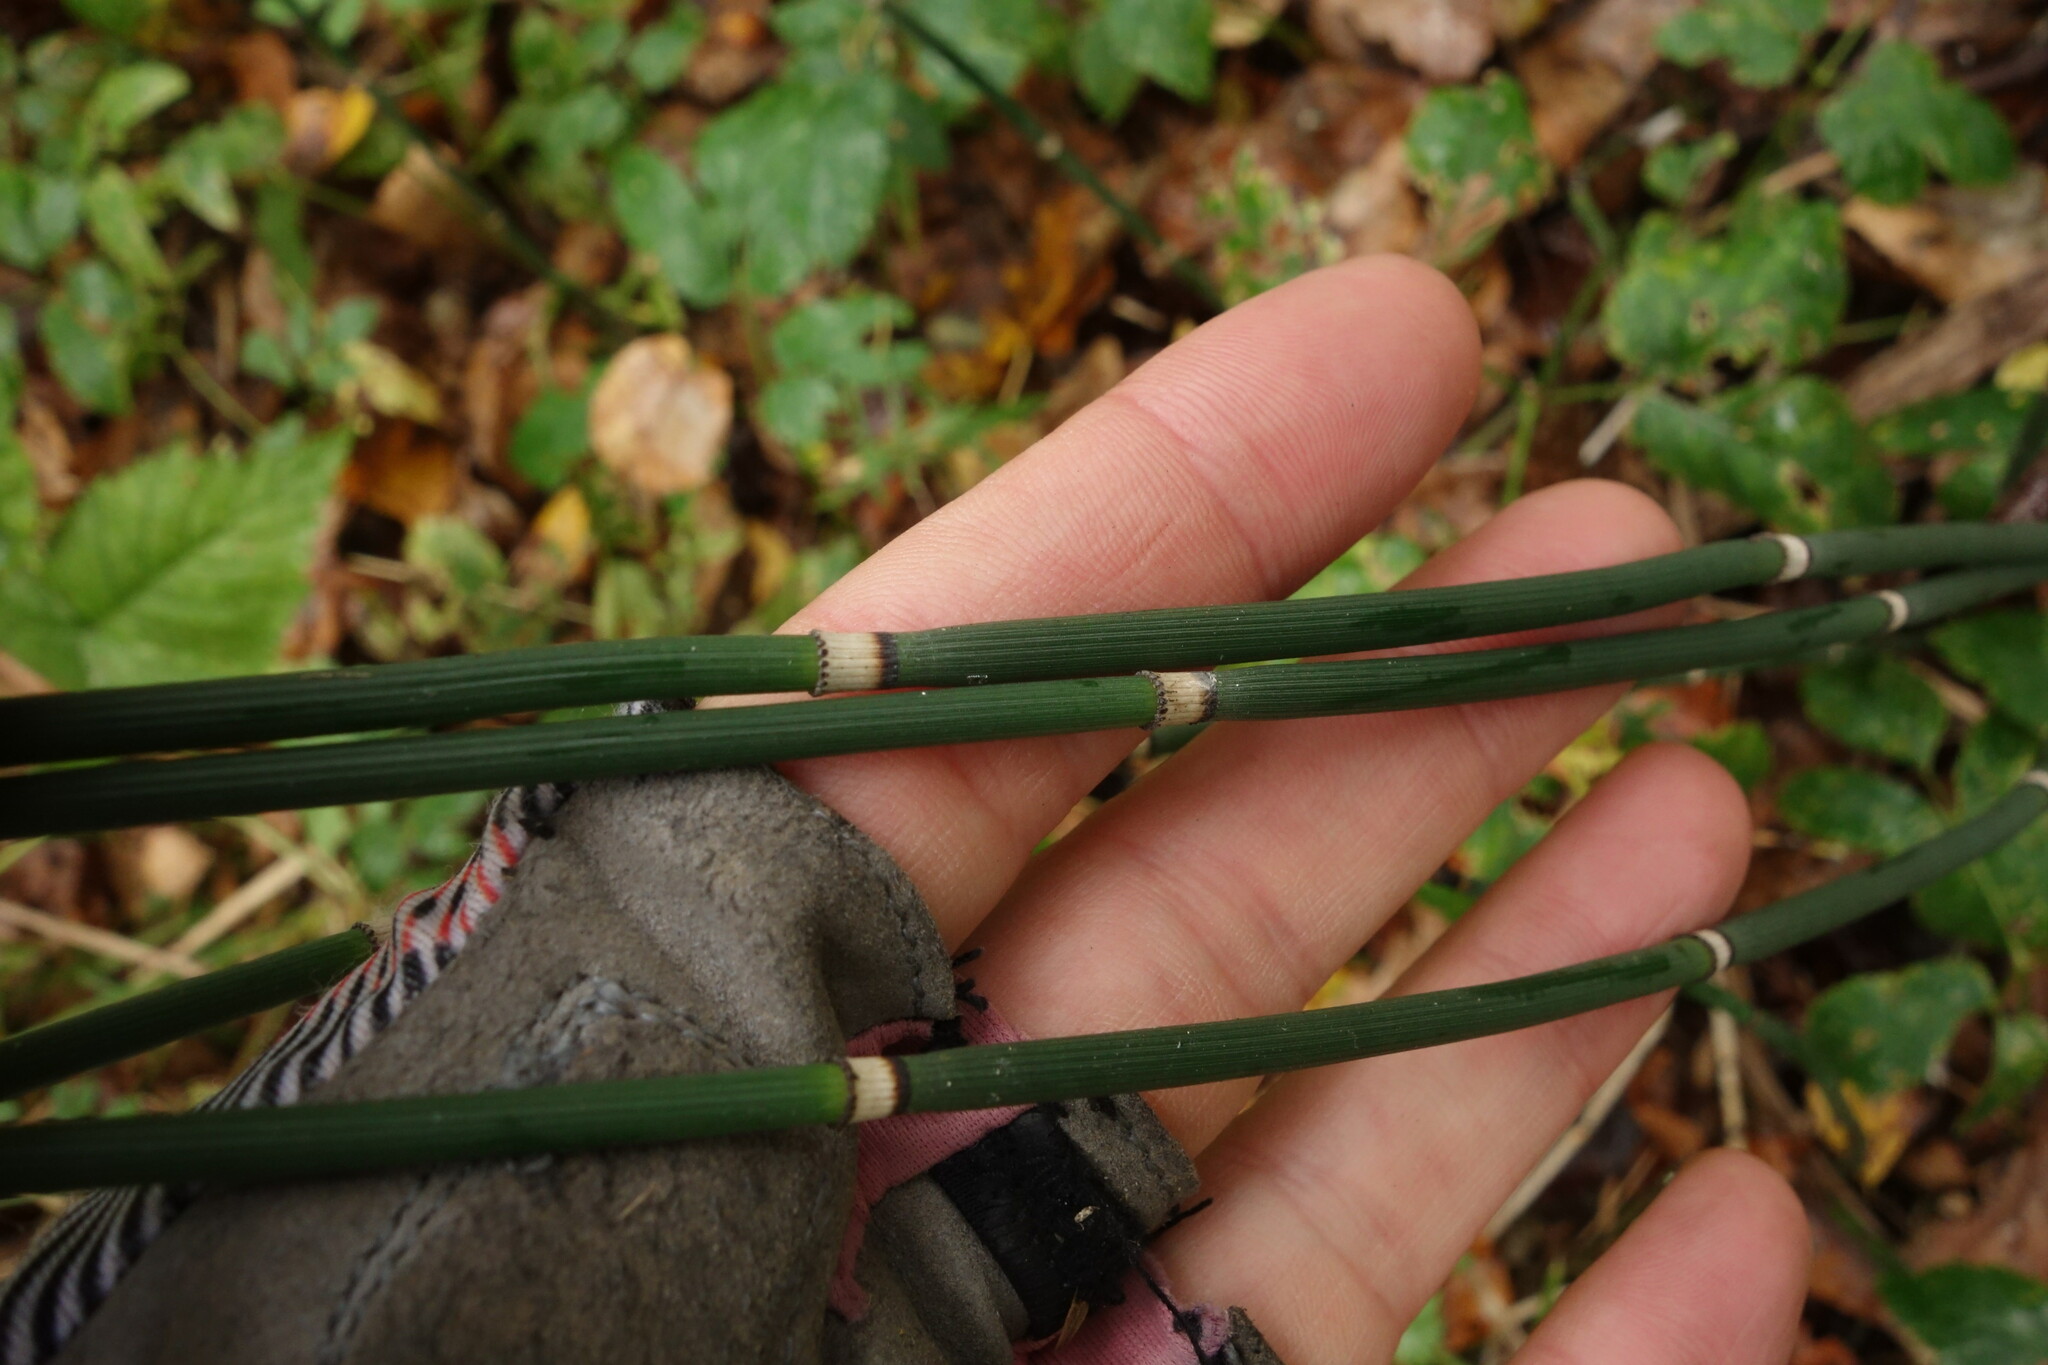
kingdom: Plantae
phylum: Tracheophyta
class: Polypodiopsida
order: Equisetales
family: Equisetaceae
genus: Equisetum
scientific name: Equisetum hyemale
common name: Rough horsetail
